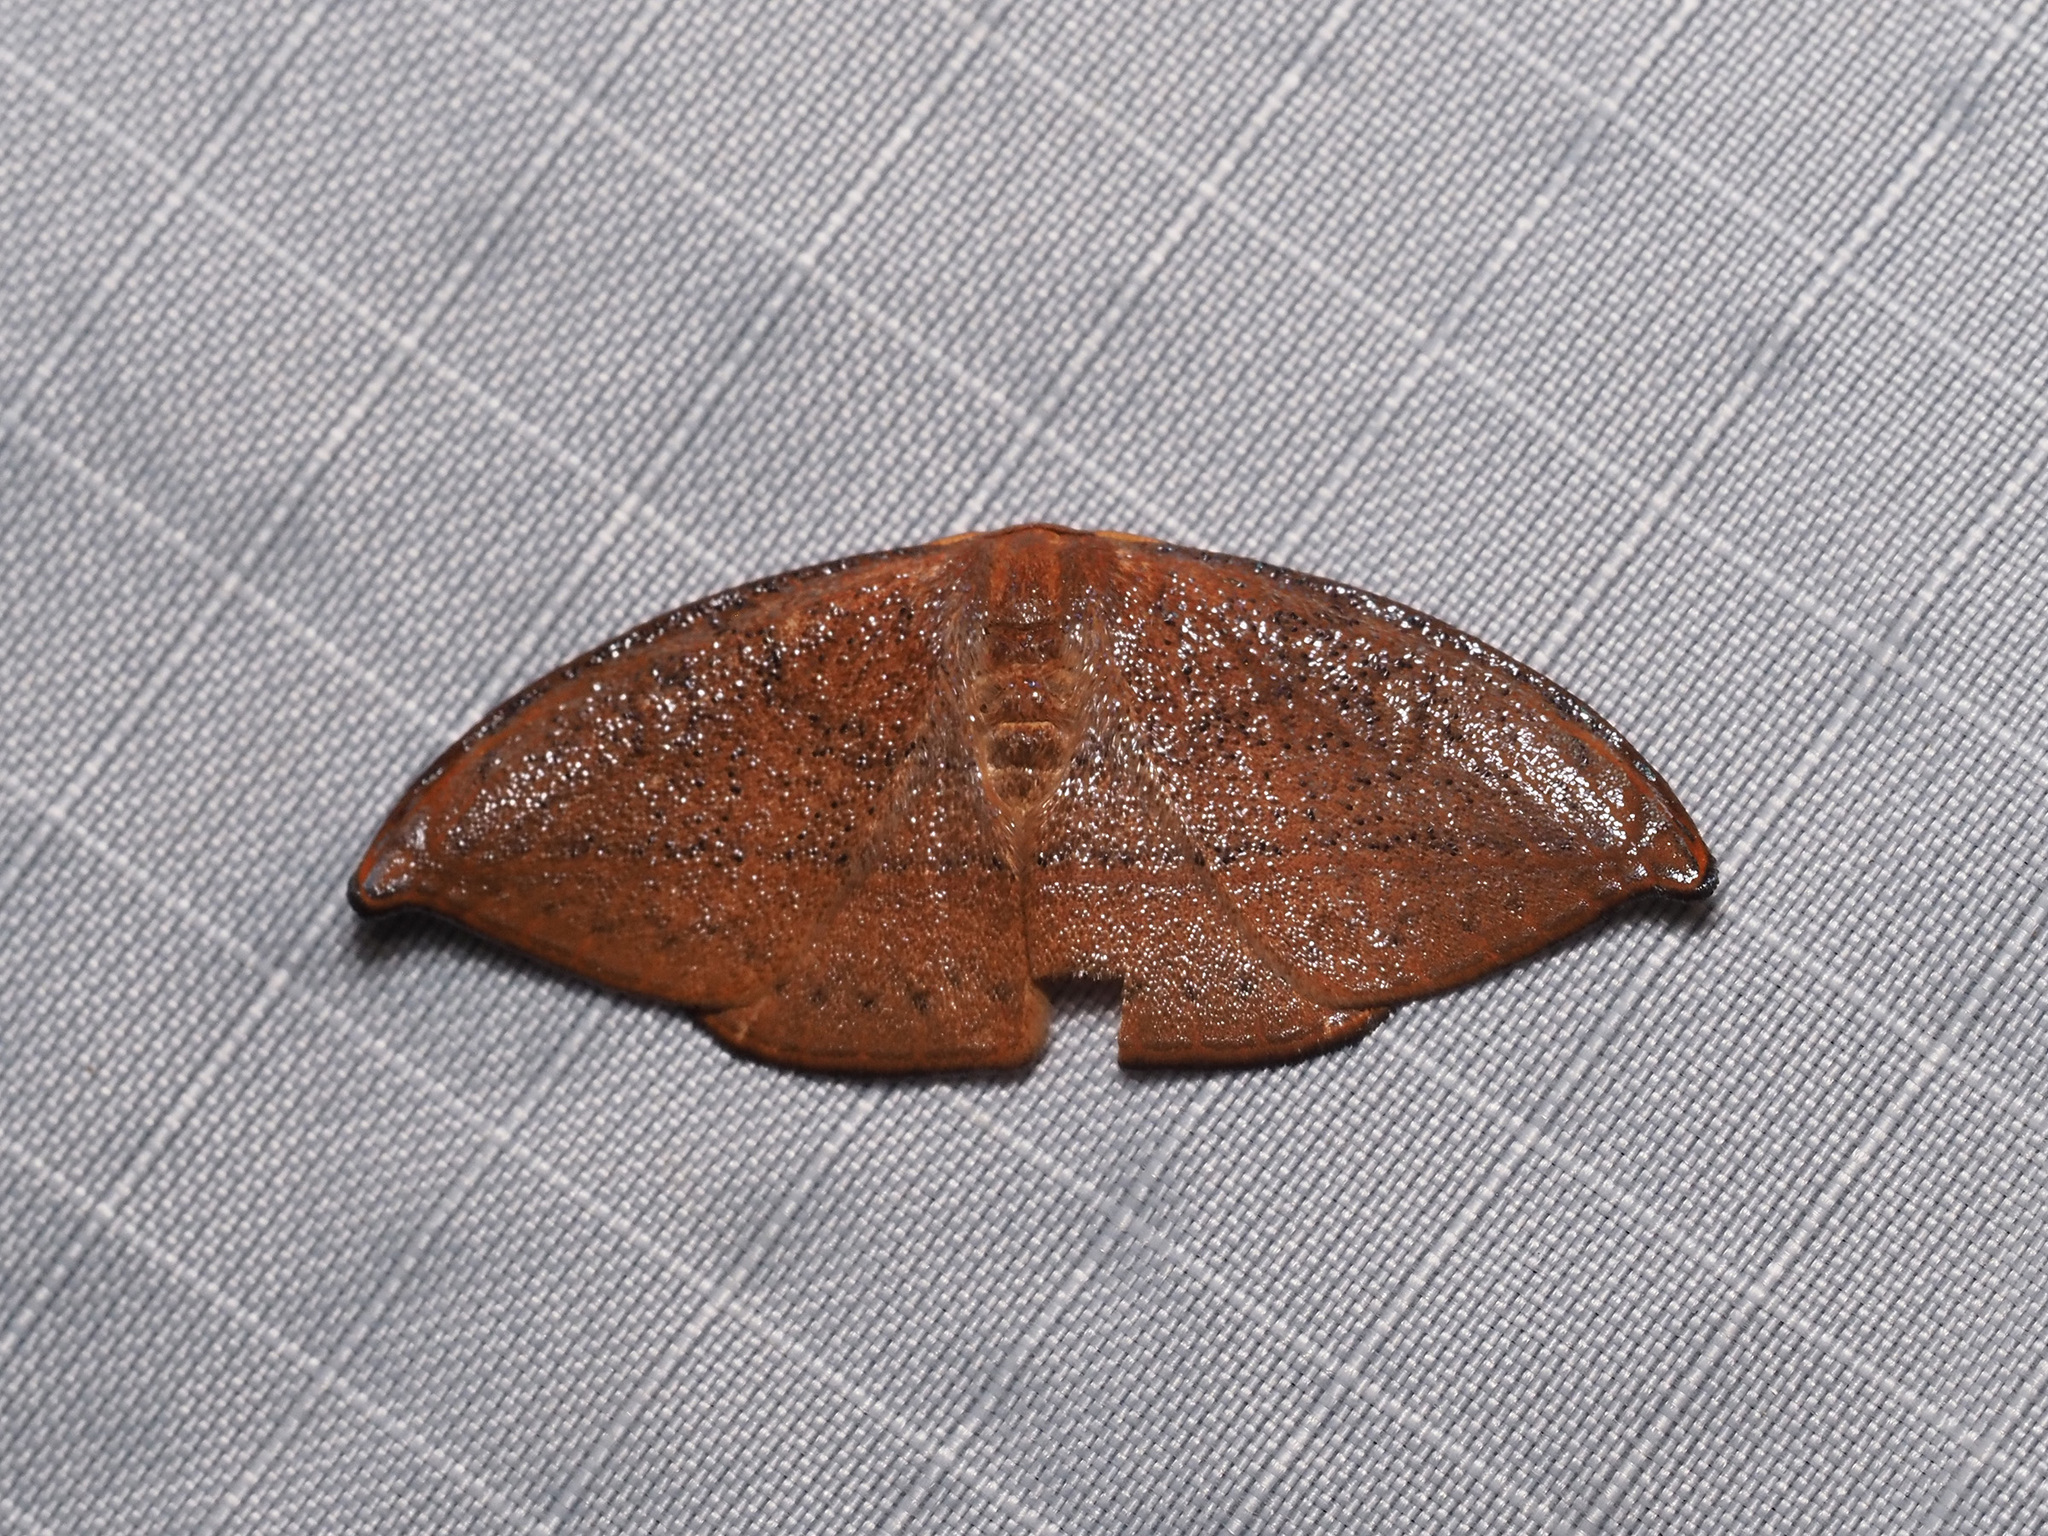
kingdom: Animalia
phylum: Arthropoda
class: Insecta
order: Lepidoptera
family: Drepanidae
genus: Callidrepana
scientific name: Callidrepana micacea
